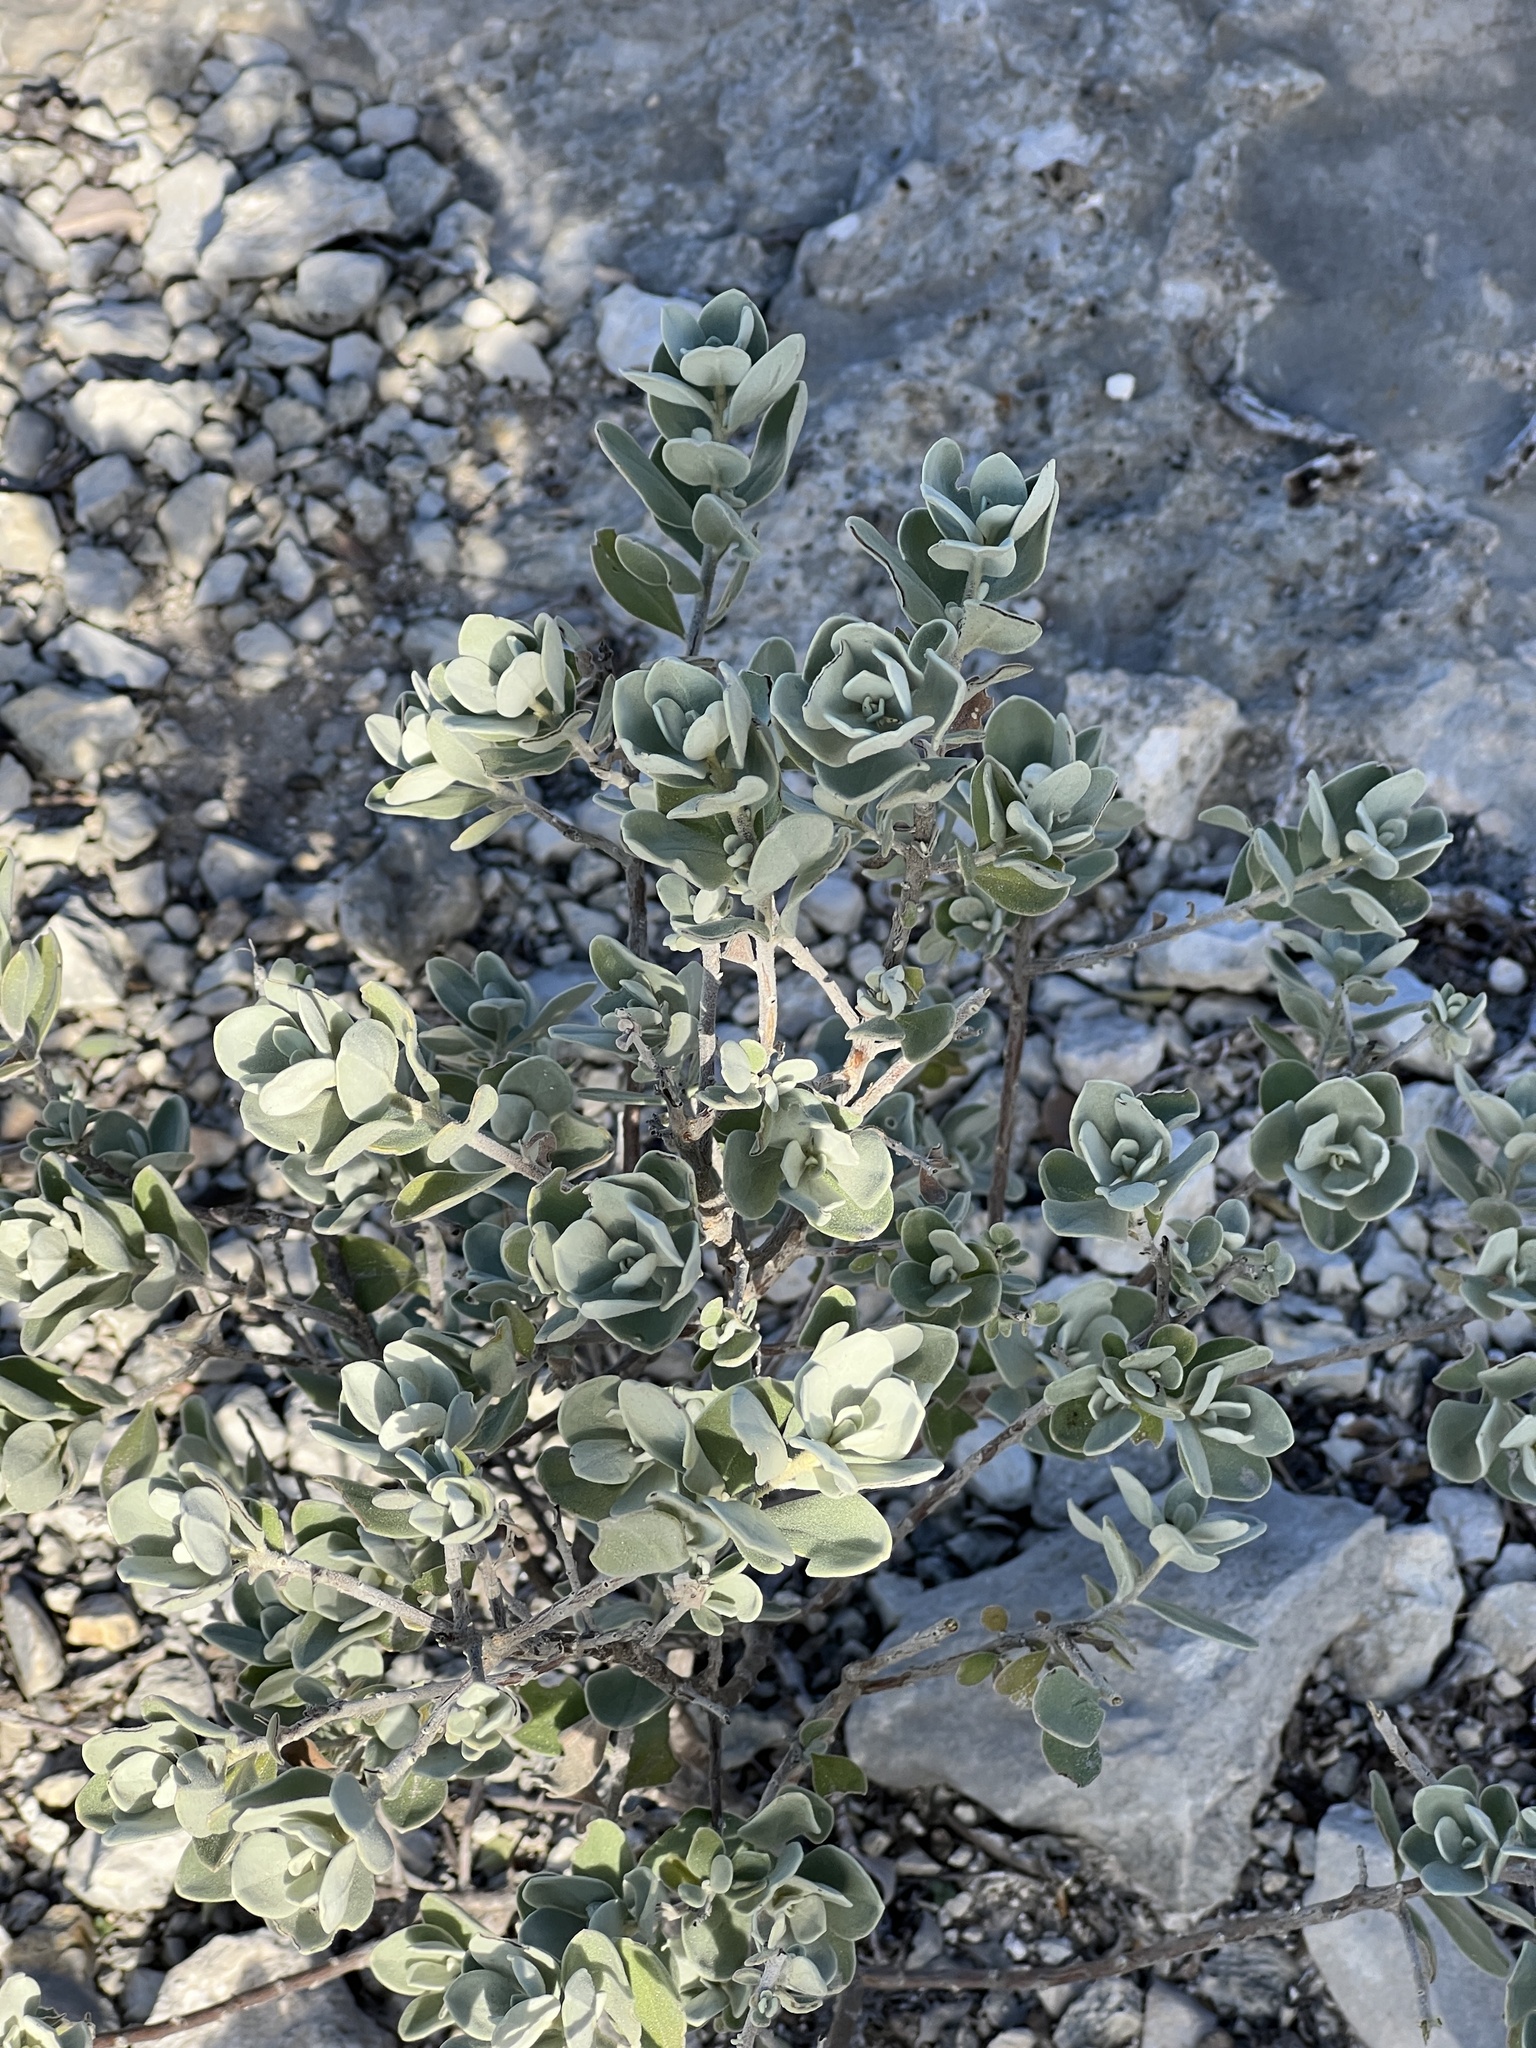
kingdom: Plantae
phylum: Tracheophyta
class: Magnoliopsida
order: Lamiales
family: Scrophulariaceae
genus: Leucophyllum
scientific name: Leucophyllum frutescens
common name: Texas silverleaf
